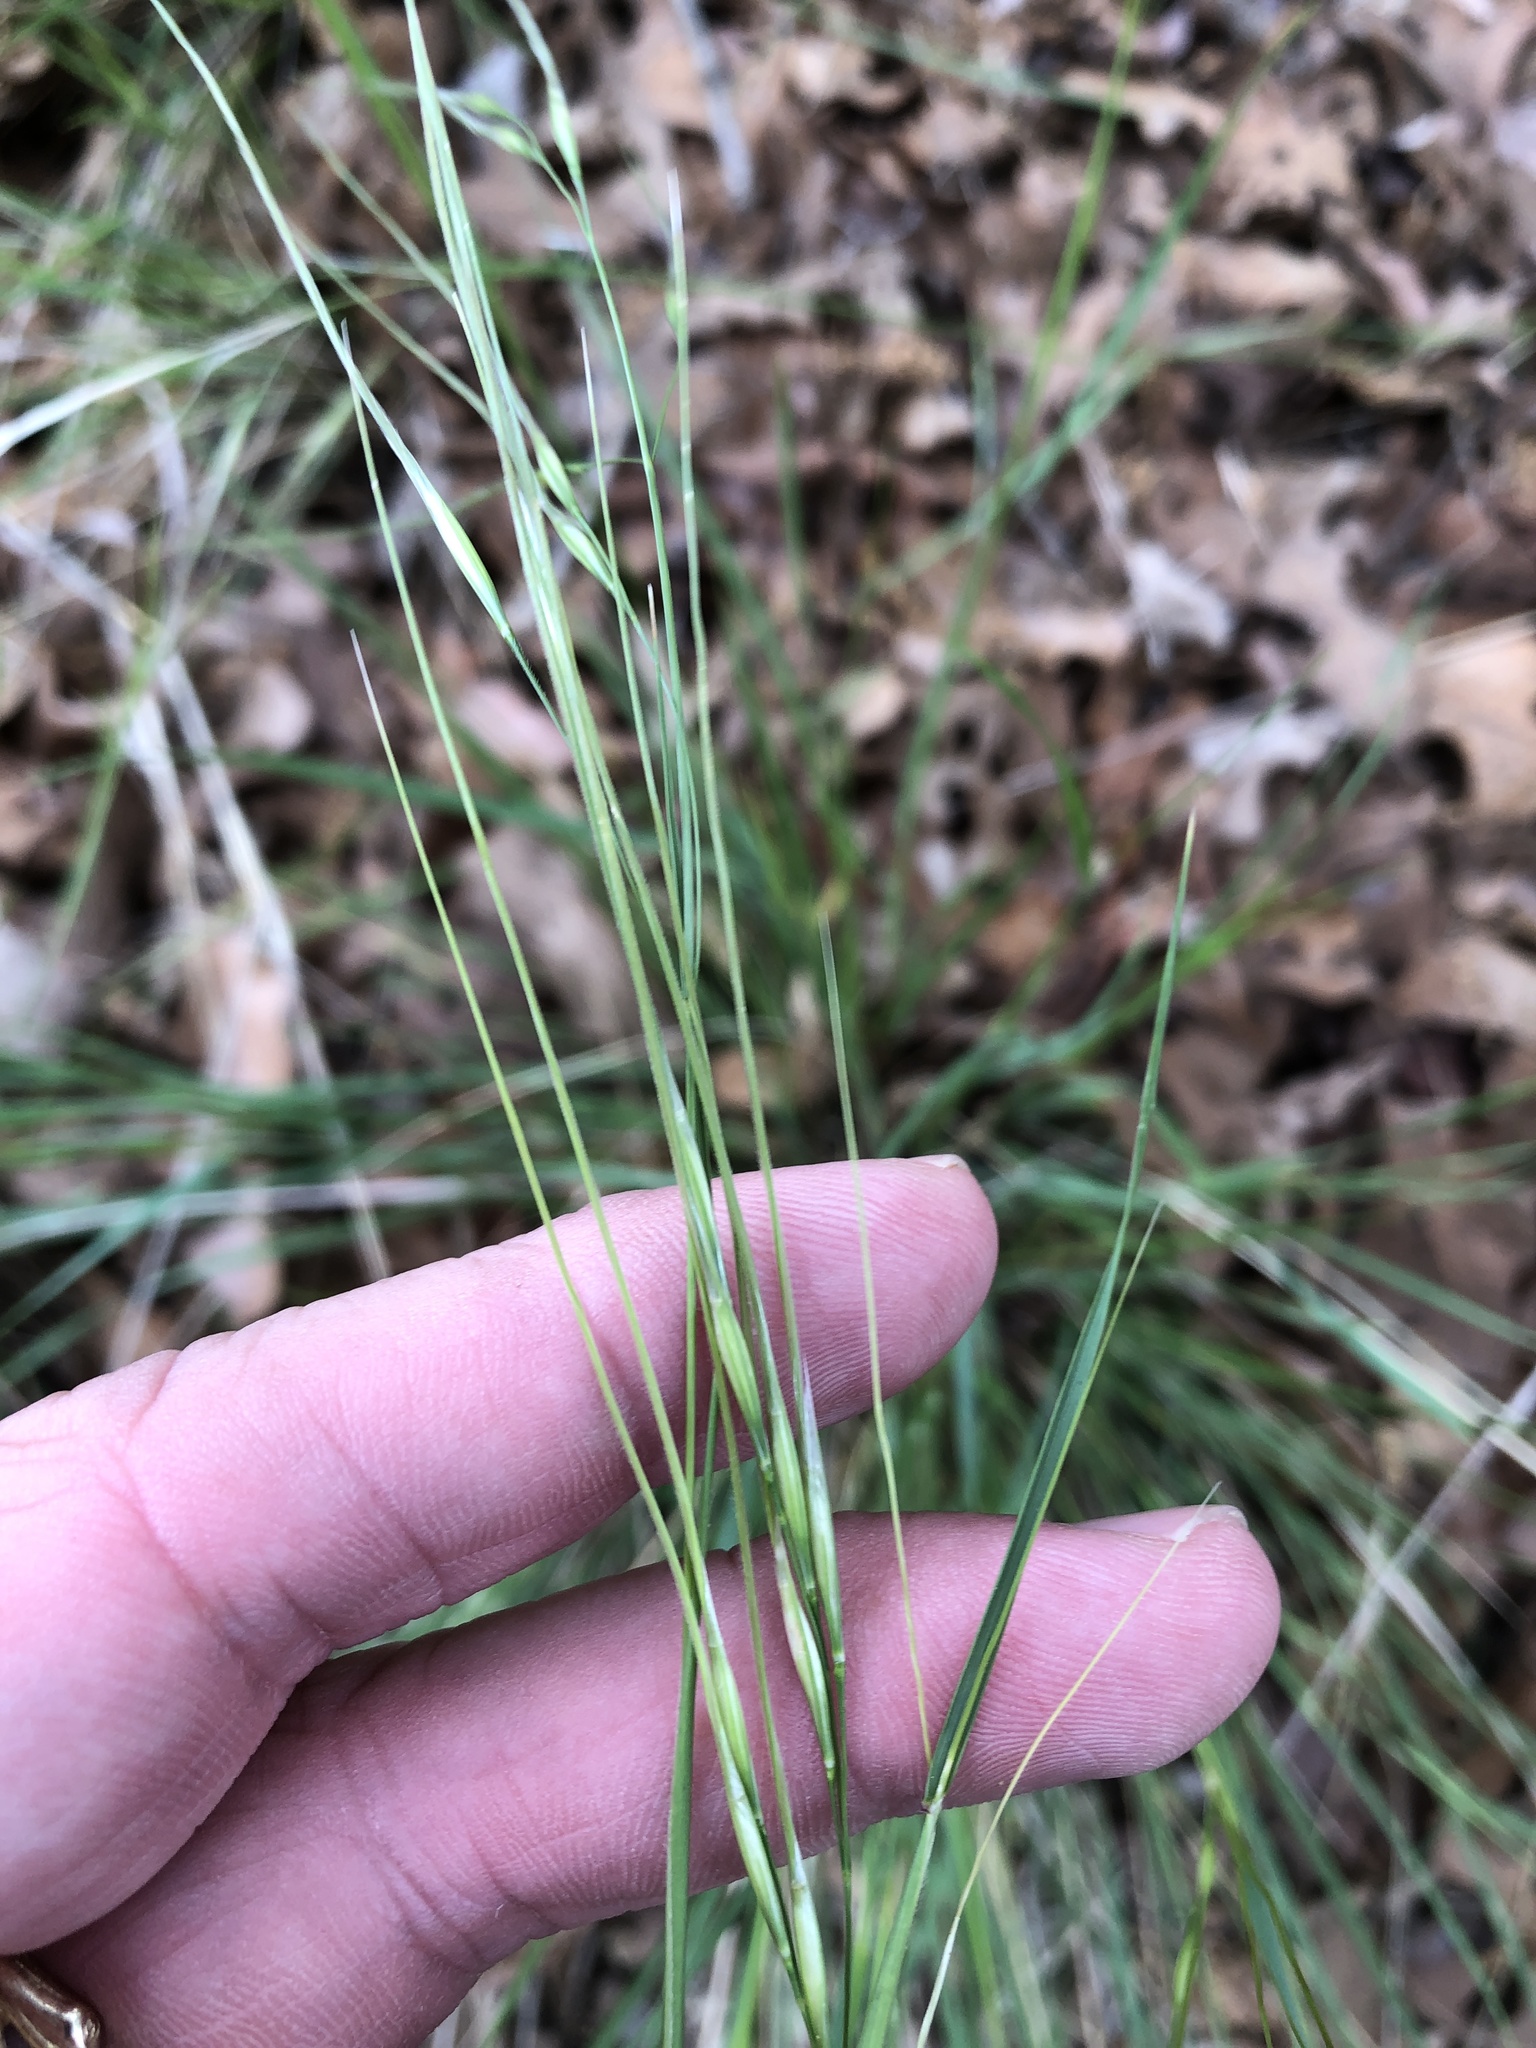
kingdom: Plantae
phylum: Tracheophyta
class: Liliopsida
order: Poales
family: Poaceae
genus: Nassella
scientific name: Nassella leucotricha
